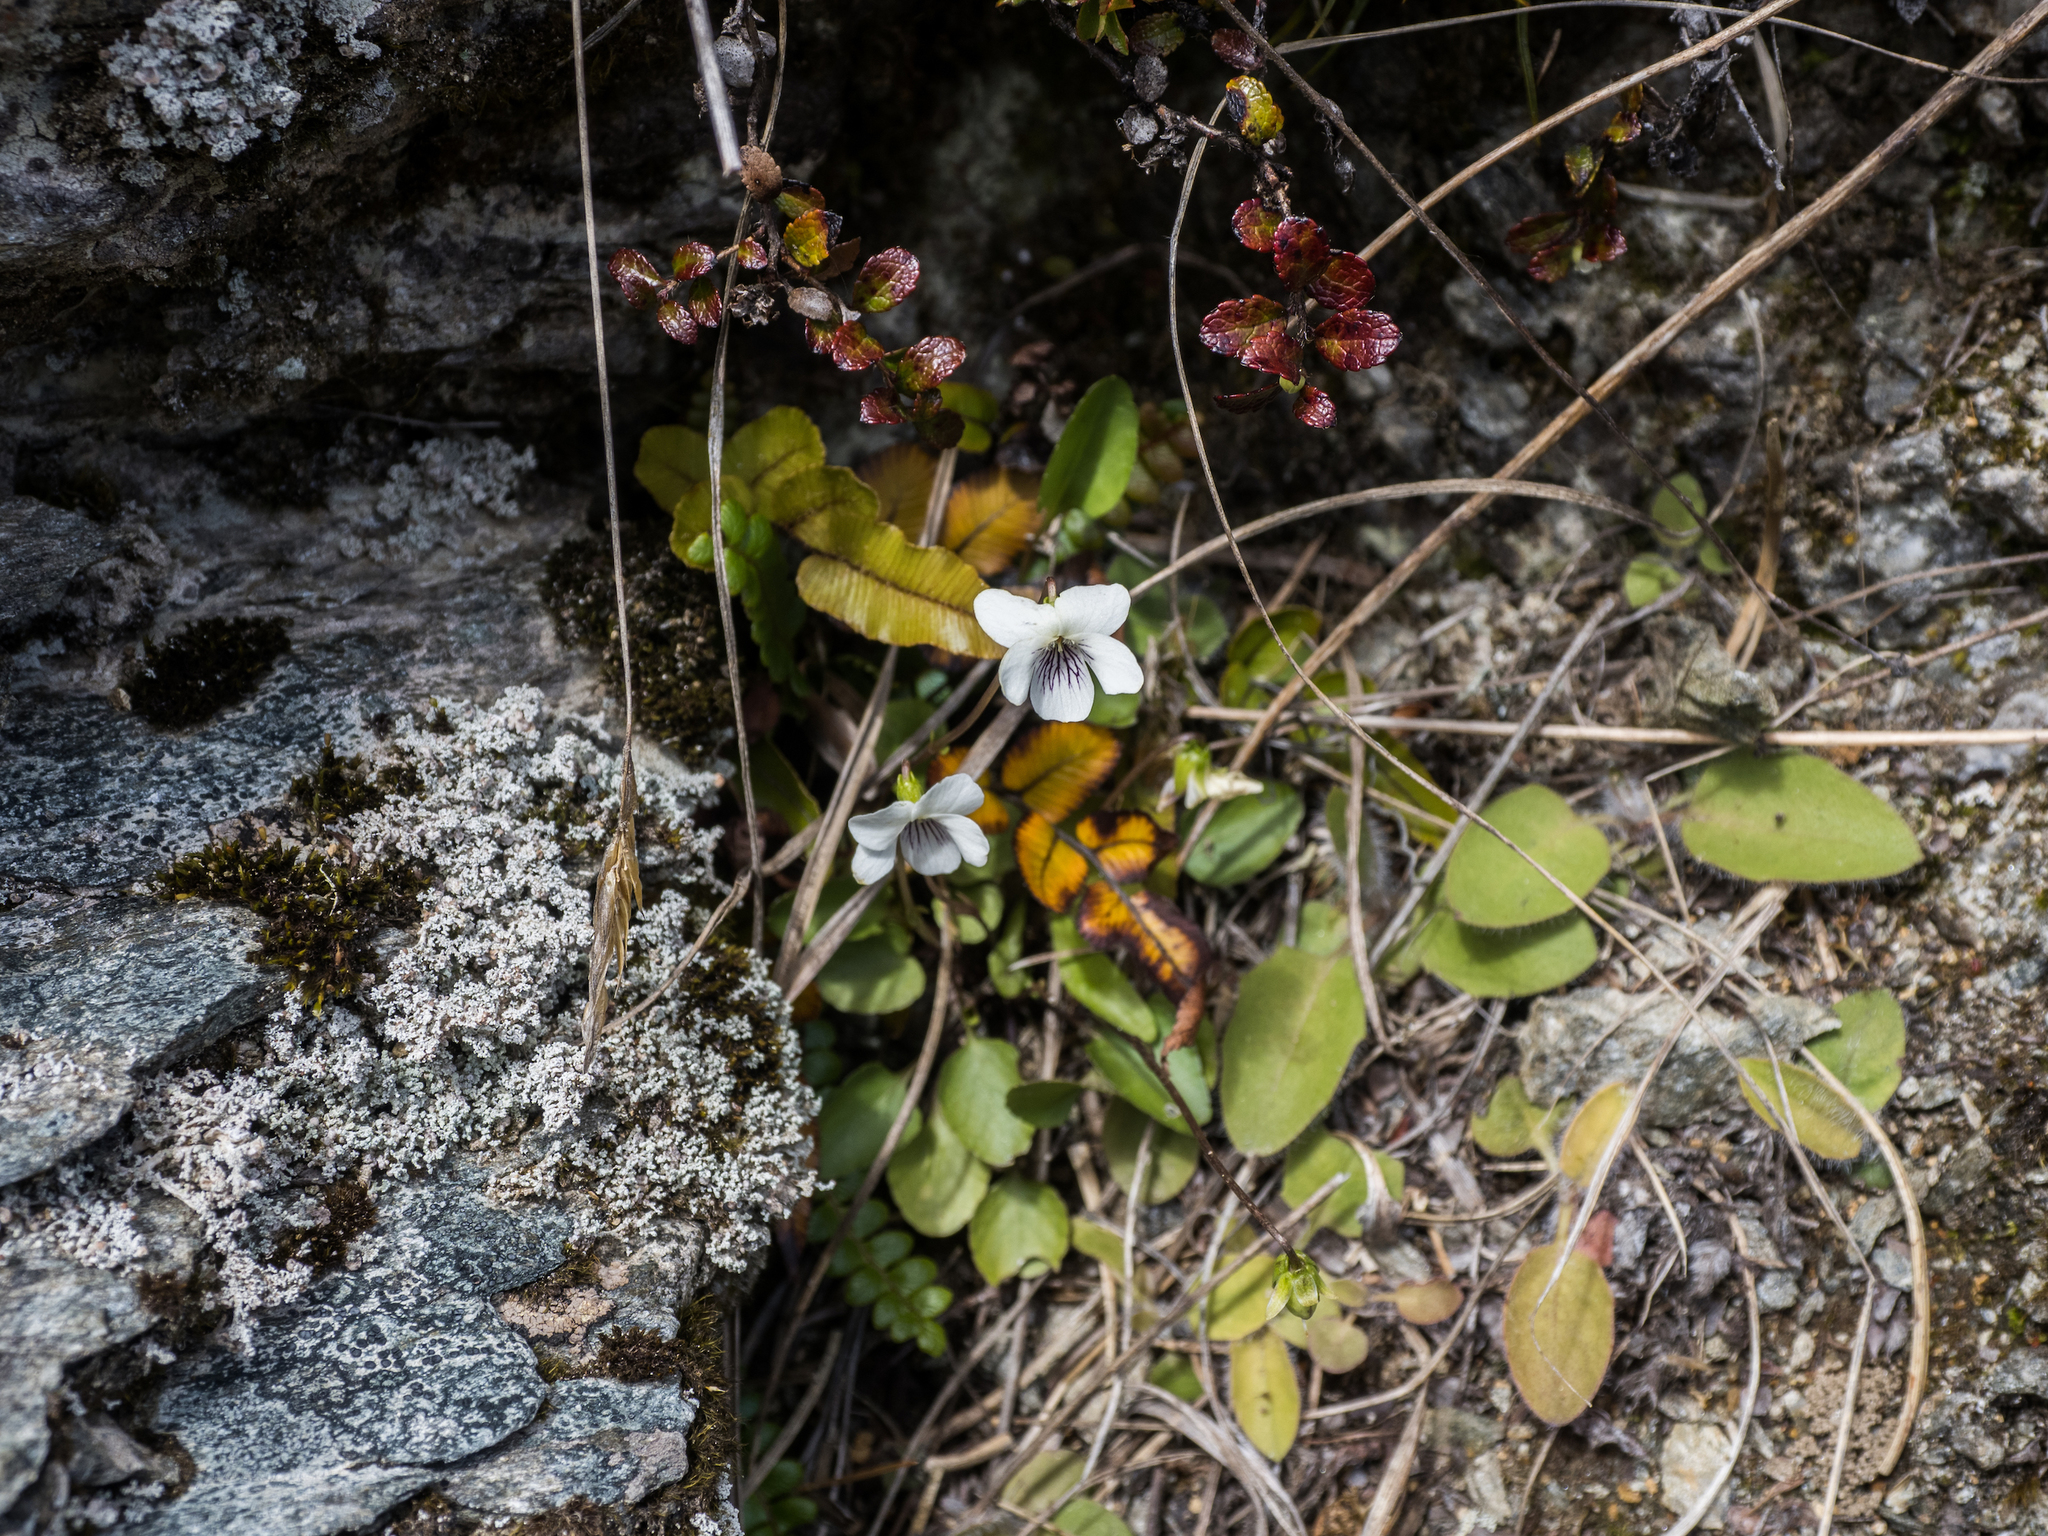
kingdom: Plantae
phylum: Tracheophyta
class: Magnoliopsida
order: Malpighiales
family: Violaceae
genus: Viola
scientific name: Viola cunninghamii
